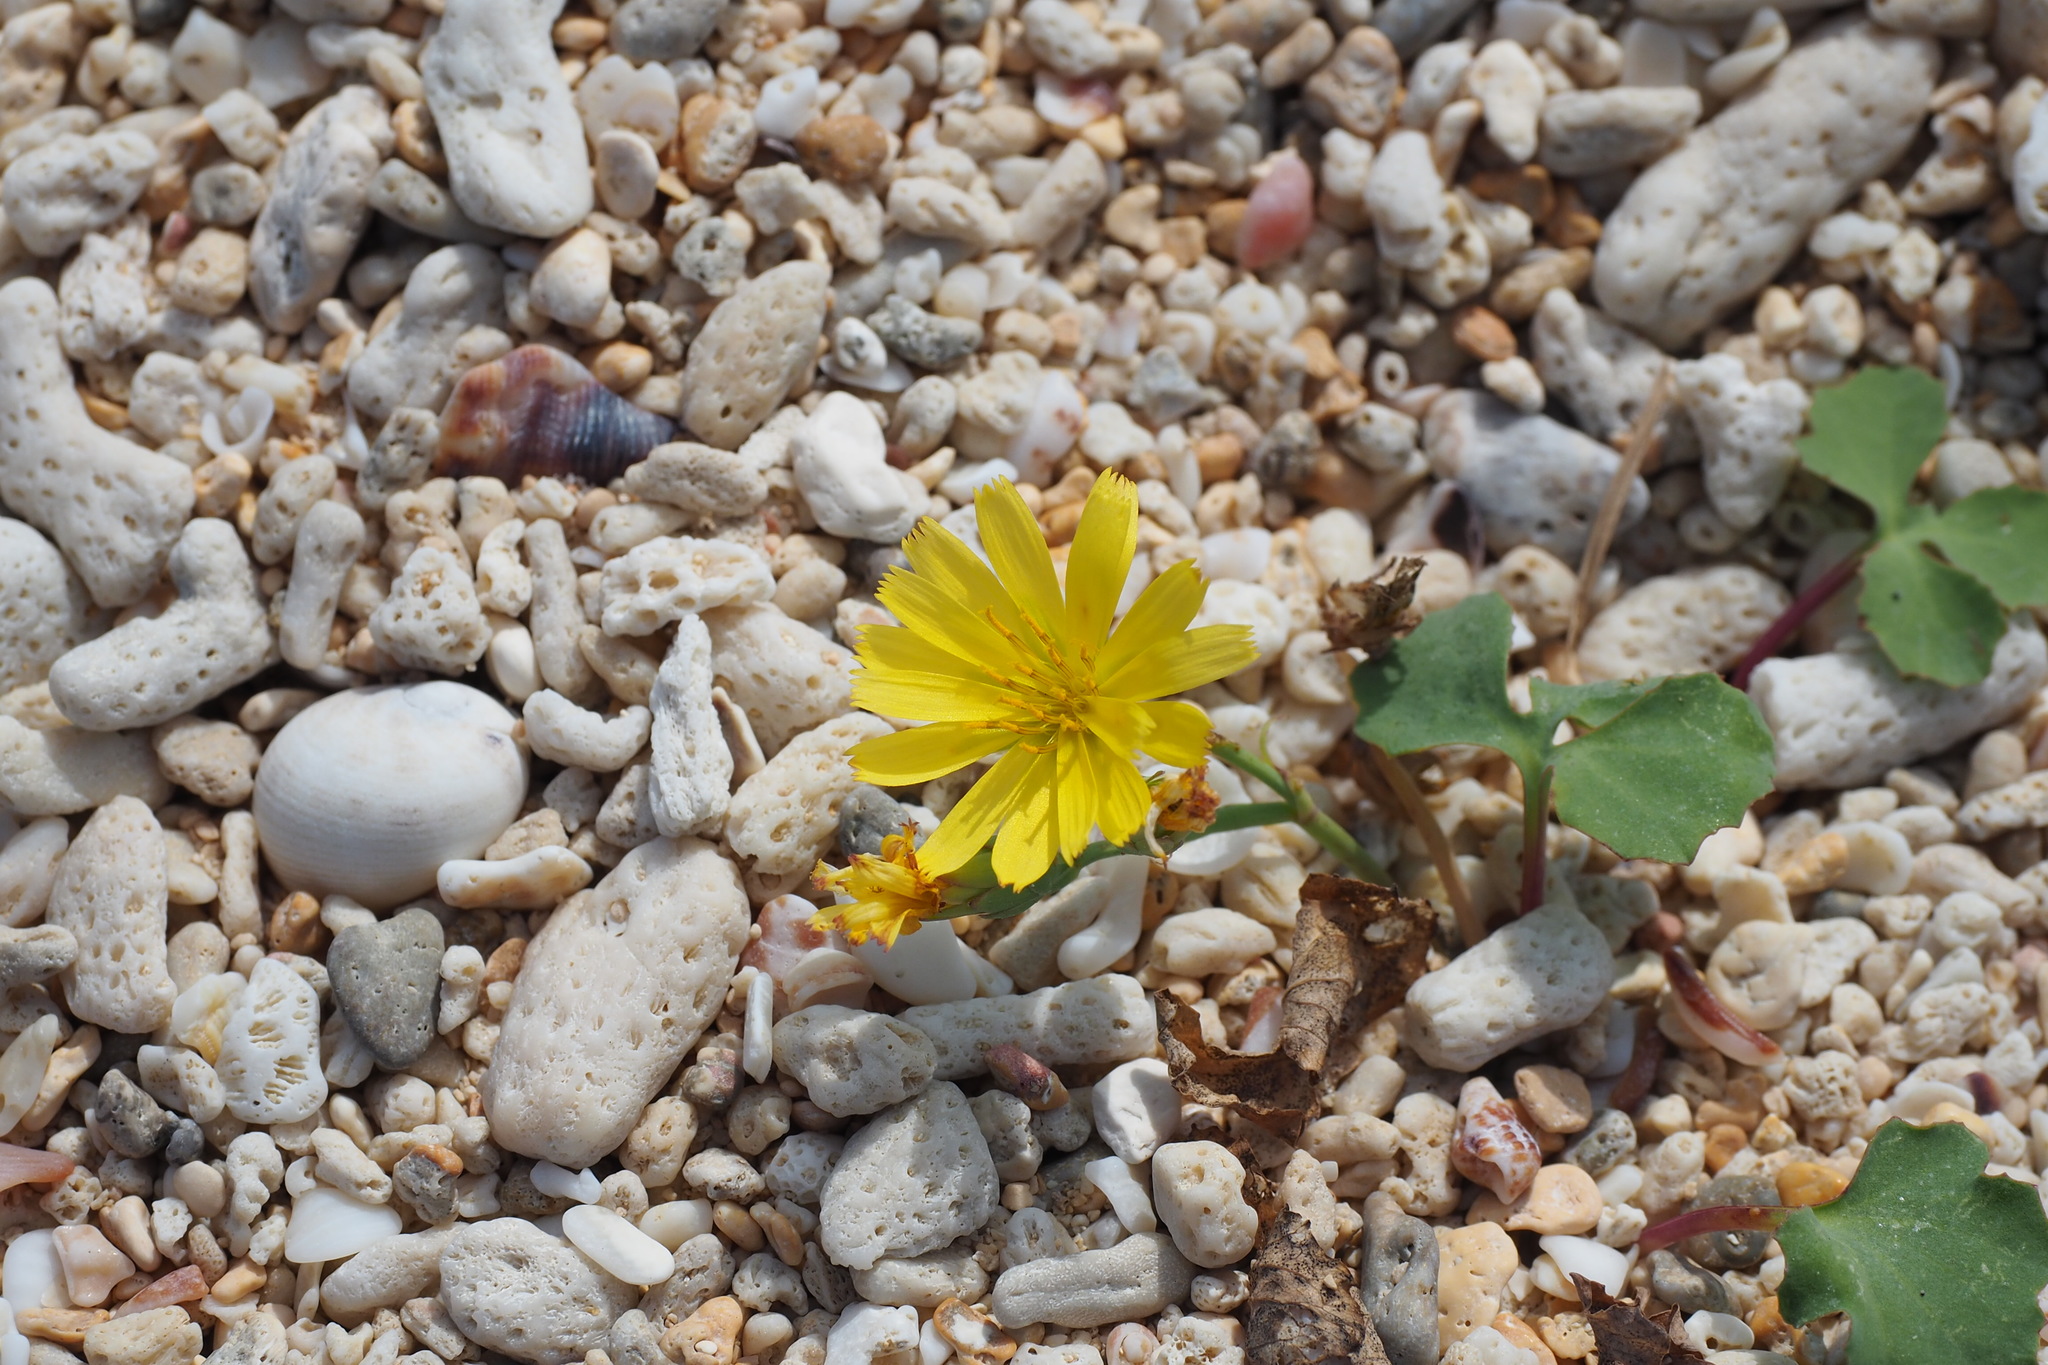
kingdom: Plantae
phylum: Tracheophyta
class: Magnoliopsida
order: Asterales
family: Asteraceae
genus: Ixeris
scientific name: Ixeris repens
